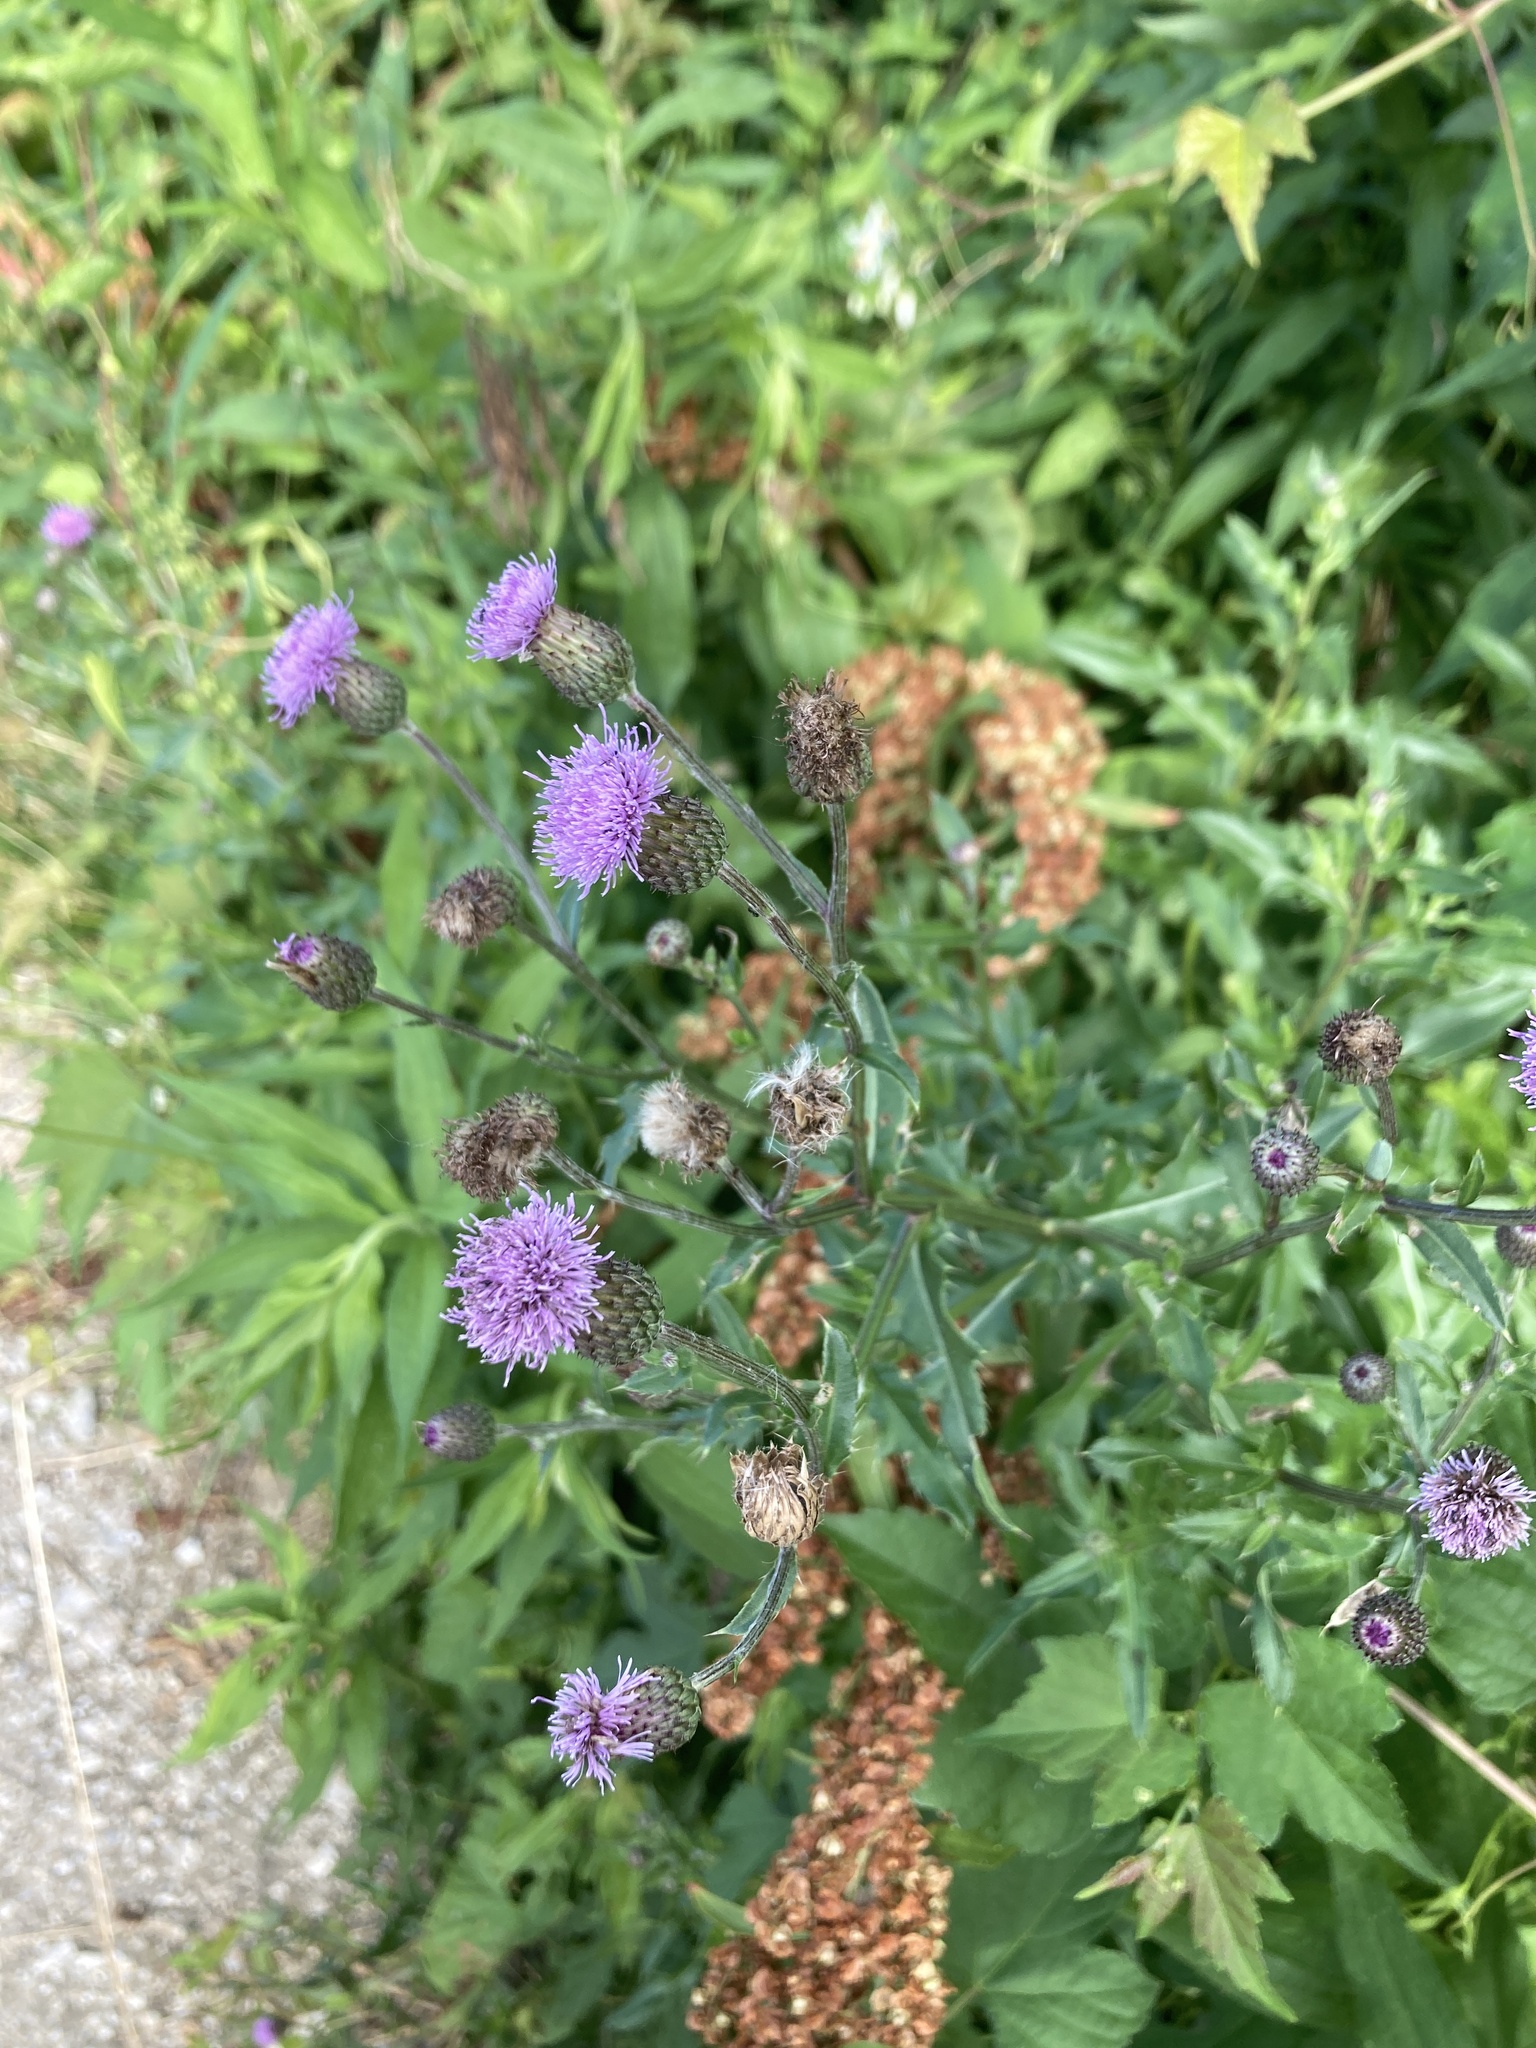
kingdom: Plantae
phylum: Tracheophyta
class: Magnoliopsida
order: Asterales
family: Asteraceae
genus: Cirsium
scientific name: Cirsium arvense
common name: Creeping thistle
